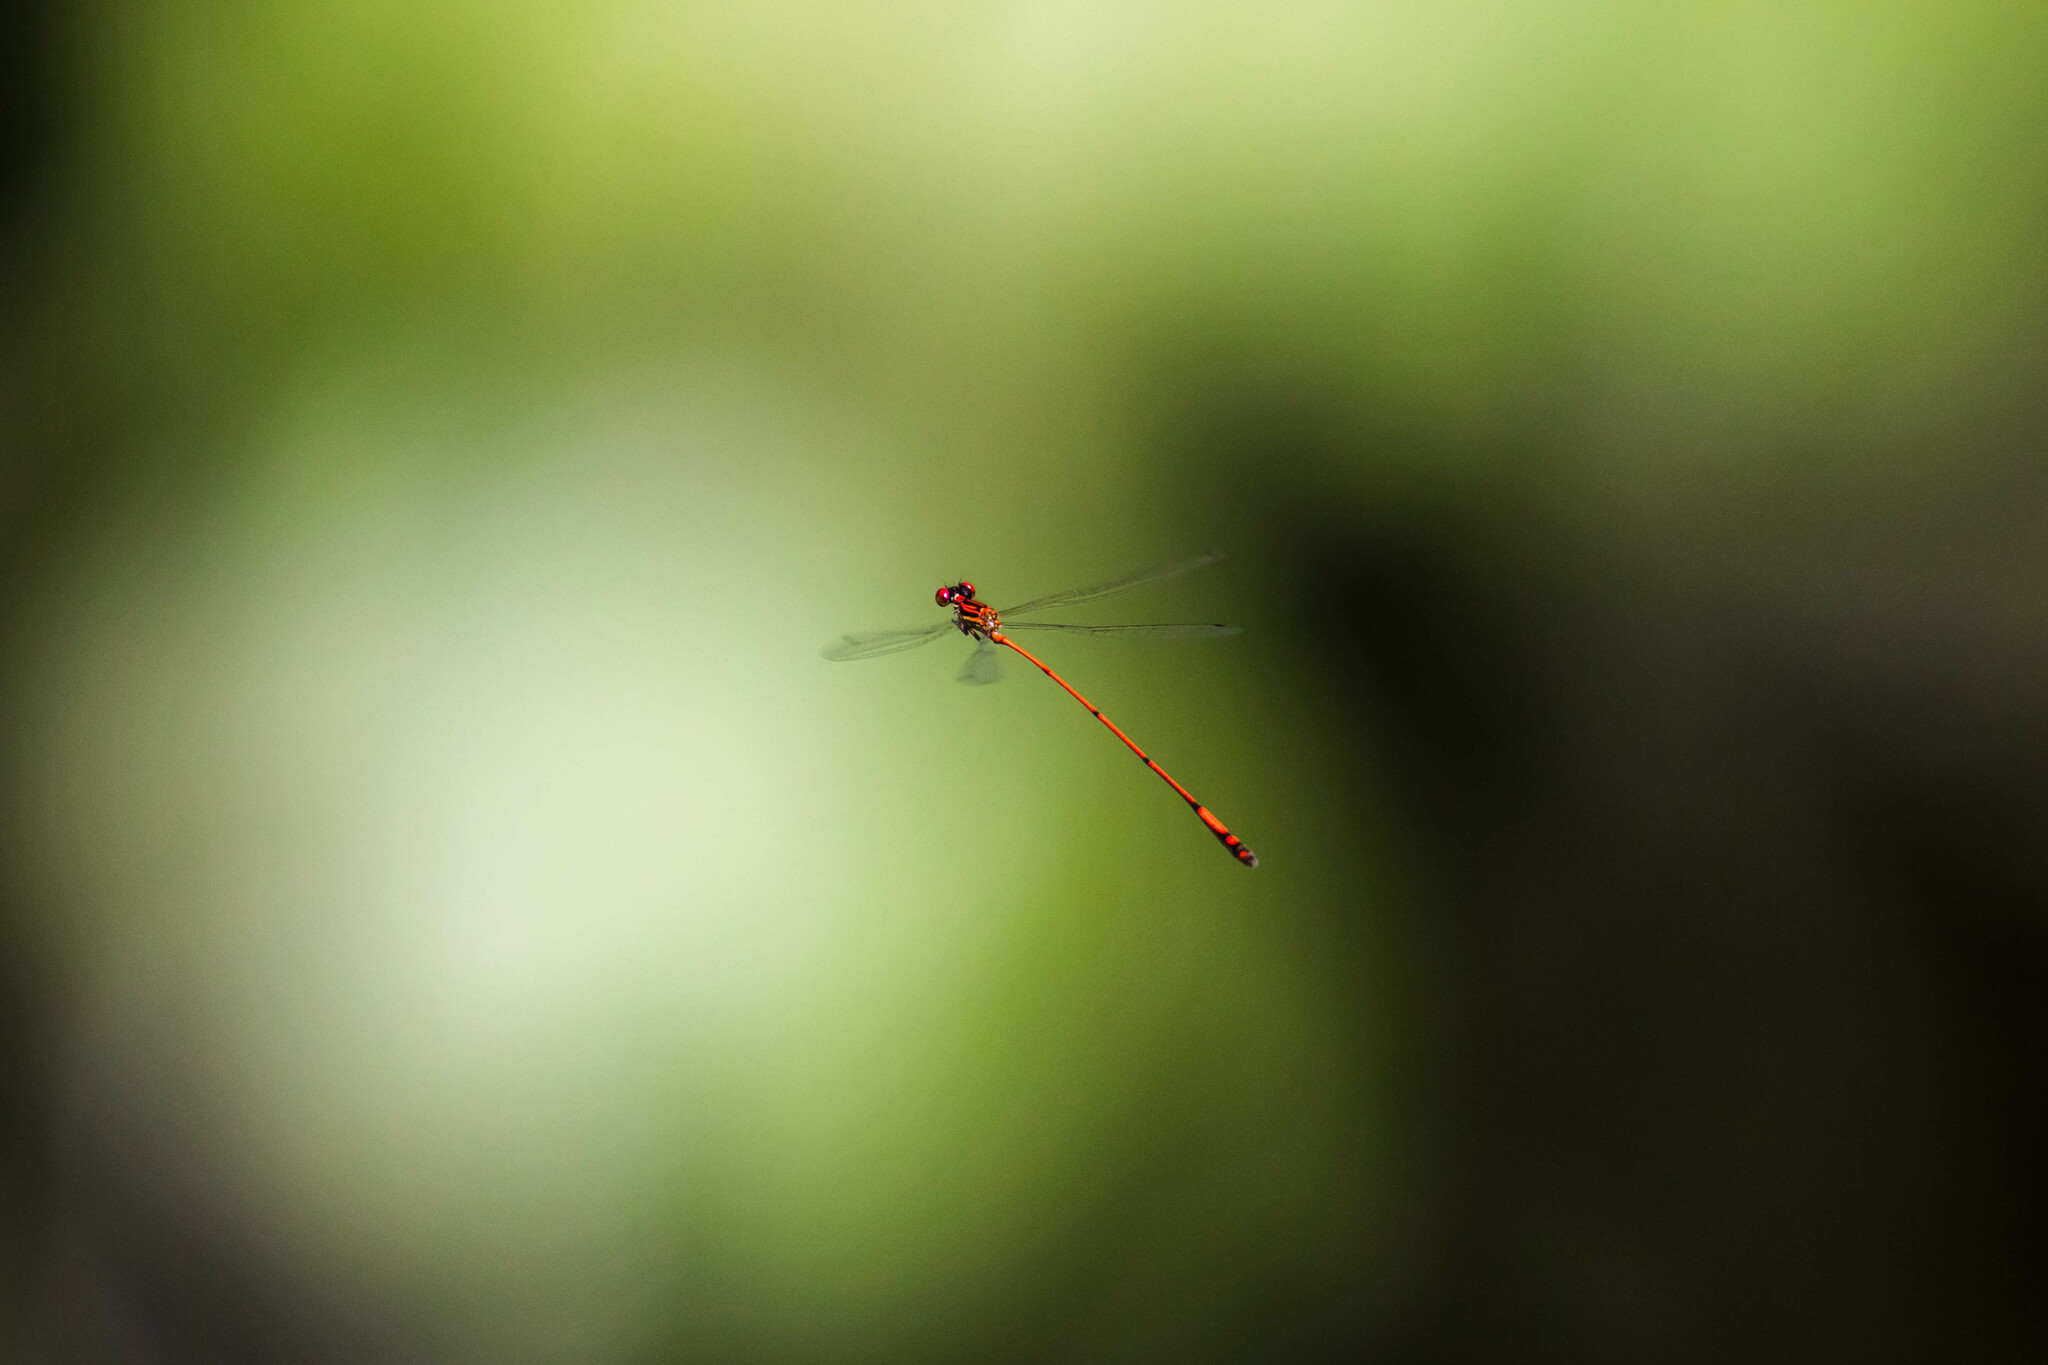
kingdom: Animalia
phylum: Arthropoda
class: Insecta
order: Odonata
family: Coenagrionidae
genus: Protoneura
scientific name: Protoneura amatoria
